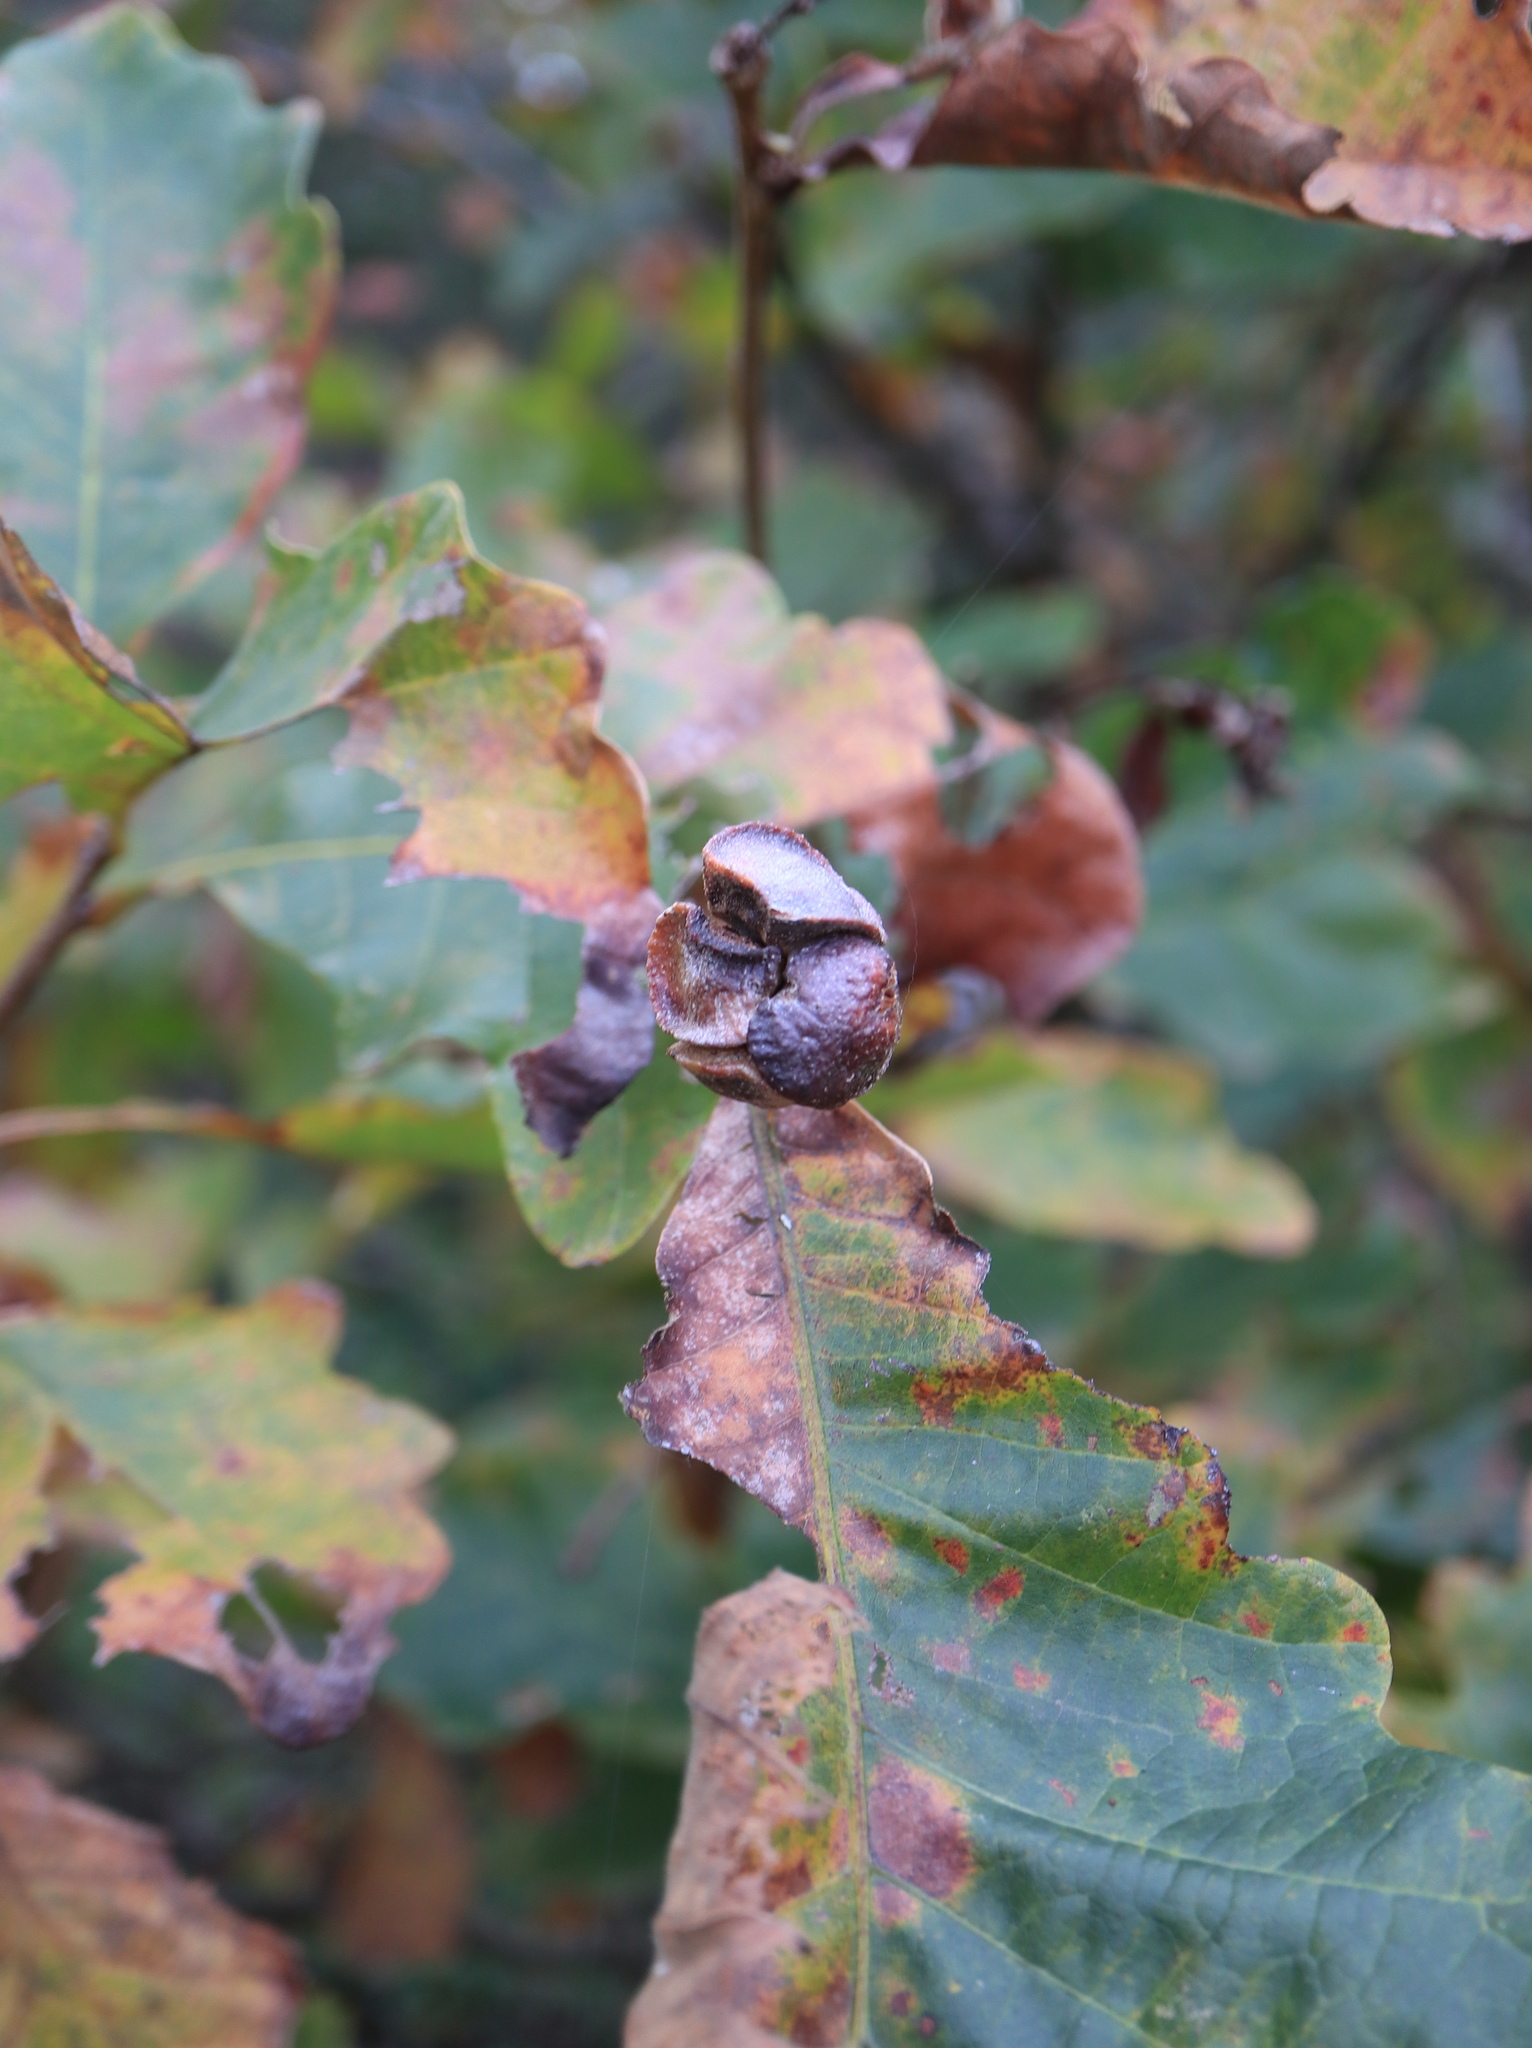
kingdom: Animalia
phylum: Arthropoda
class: Insecta
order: Hymenoptera
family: Cynipidae
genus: Andricus
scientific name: Andricus
